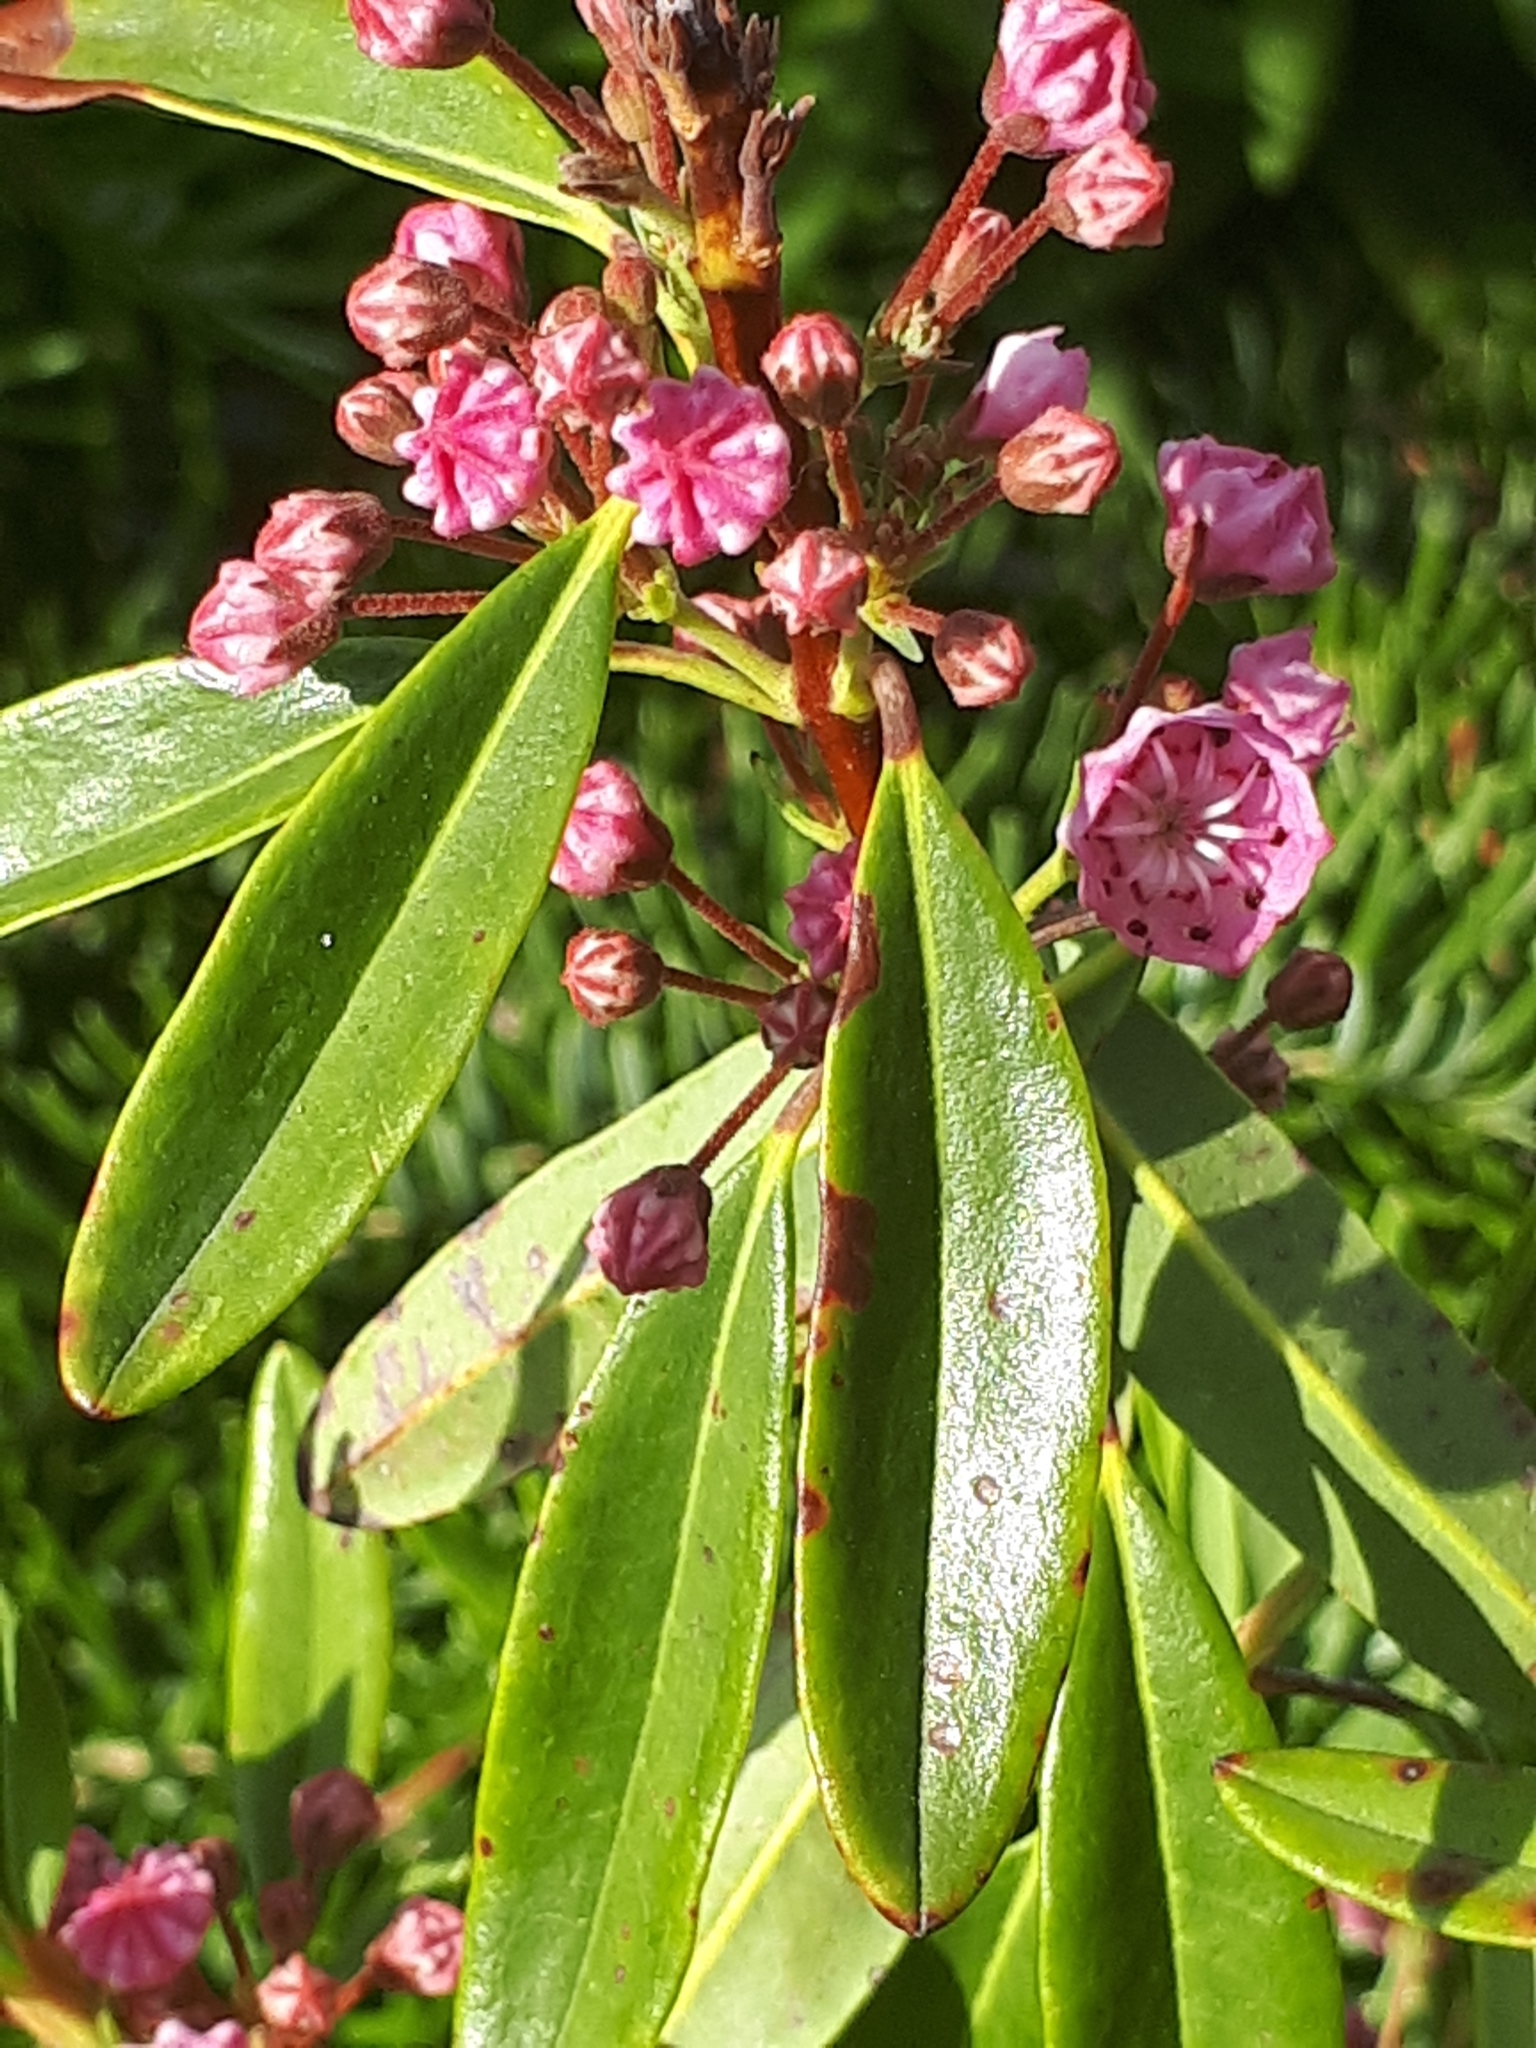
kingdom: Plantae
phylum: Tracheophyta
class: Magnoliopsida
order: Ericales
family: Ericaceae
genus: Kalmia
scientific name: Kalmia angustifolia
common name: Sheep-laurel
